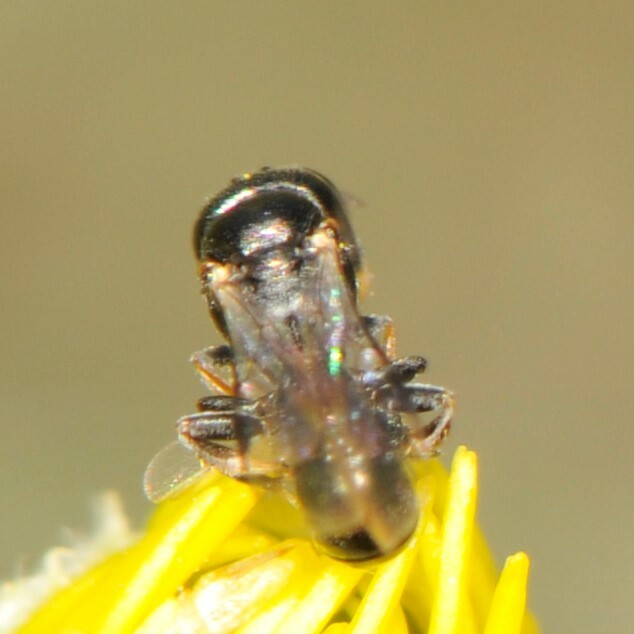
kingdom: Animalia
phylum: Arthropoda
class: Insecta
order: Hymenoptera
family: Crabronidae
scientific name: Crabronidae
